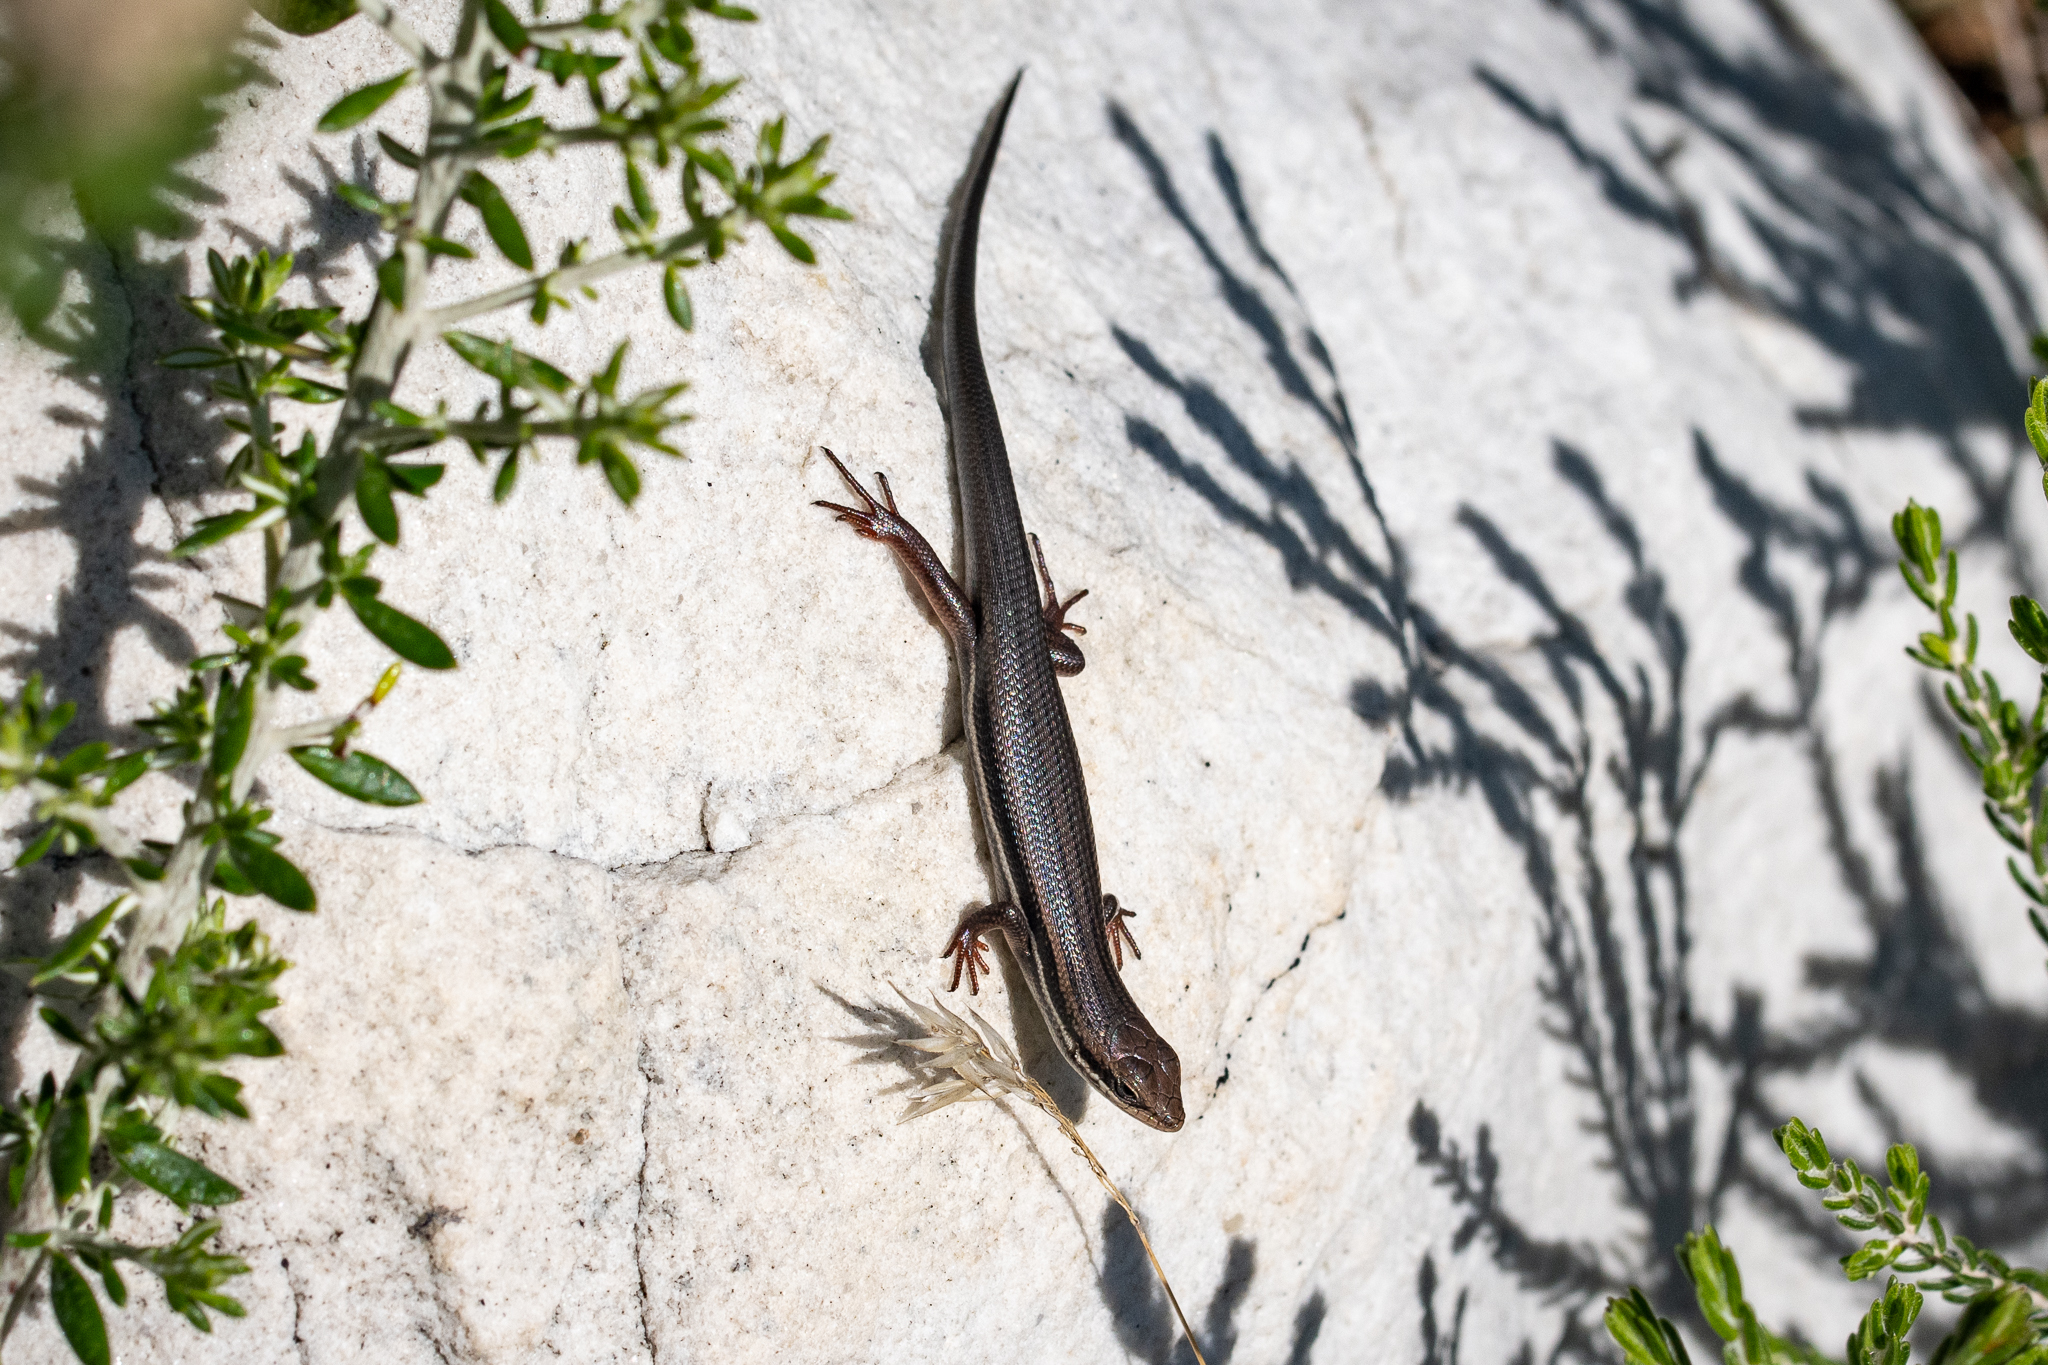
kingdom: Animalia
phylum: Chordata
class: Squamata
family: Scincidae
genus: Trachylepis
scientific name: Trachylepis homalocephala
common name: Red-sided skink
